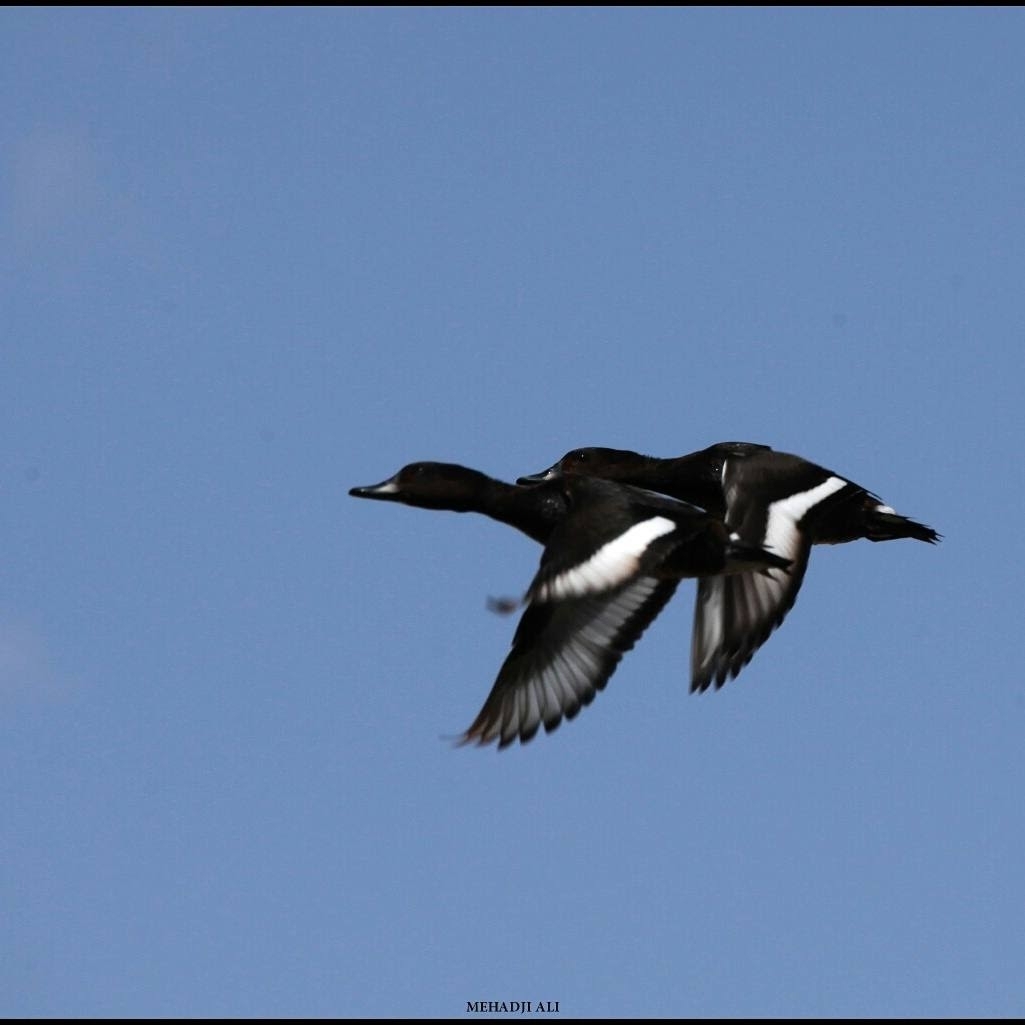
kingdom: Animalia
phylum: Chordata
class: Aves
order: Anseriformes
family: Anatidae
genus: Aythya
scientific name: Aythya nyroca
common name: Ferruginous duck
